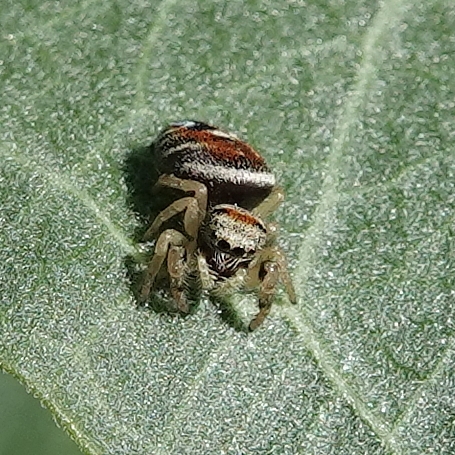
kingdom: Animalia
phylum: Arthropoda
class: Arachnida
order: Araneae
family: Salticidae
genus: Phidippus
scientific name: Phidippus apacheanus
